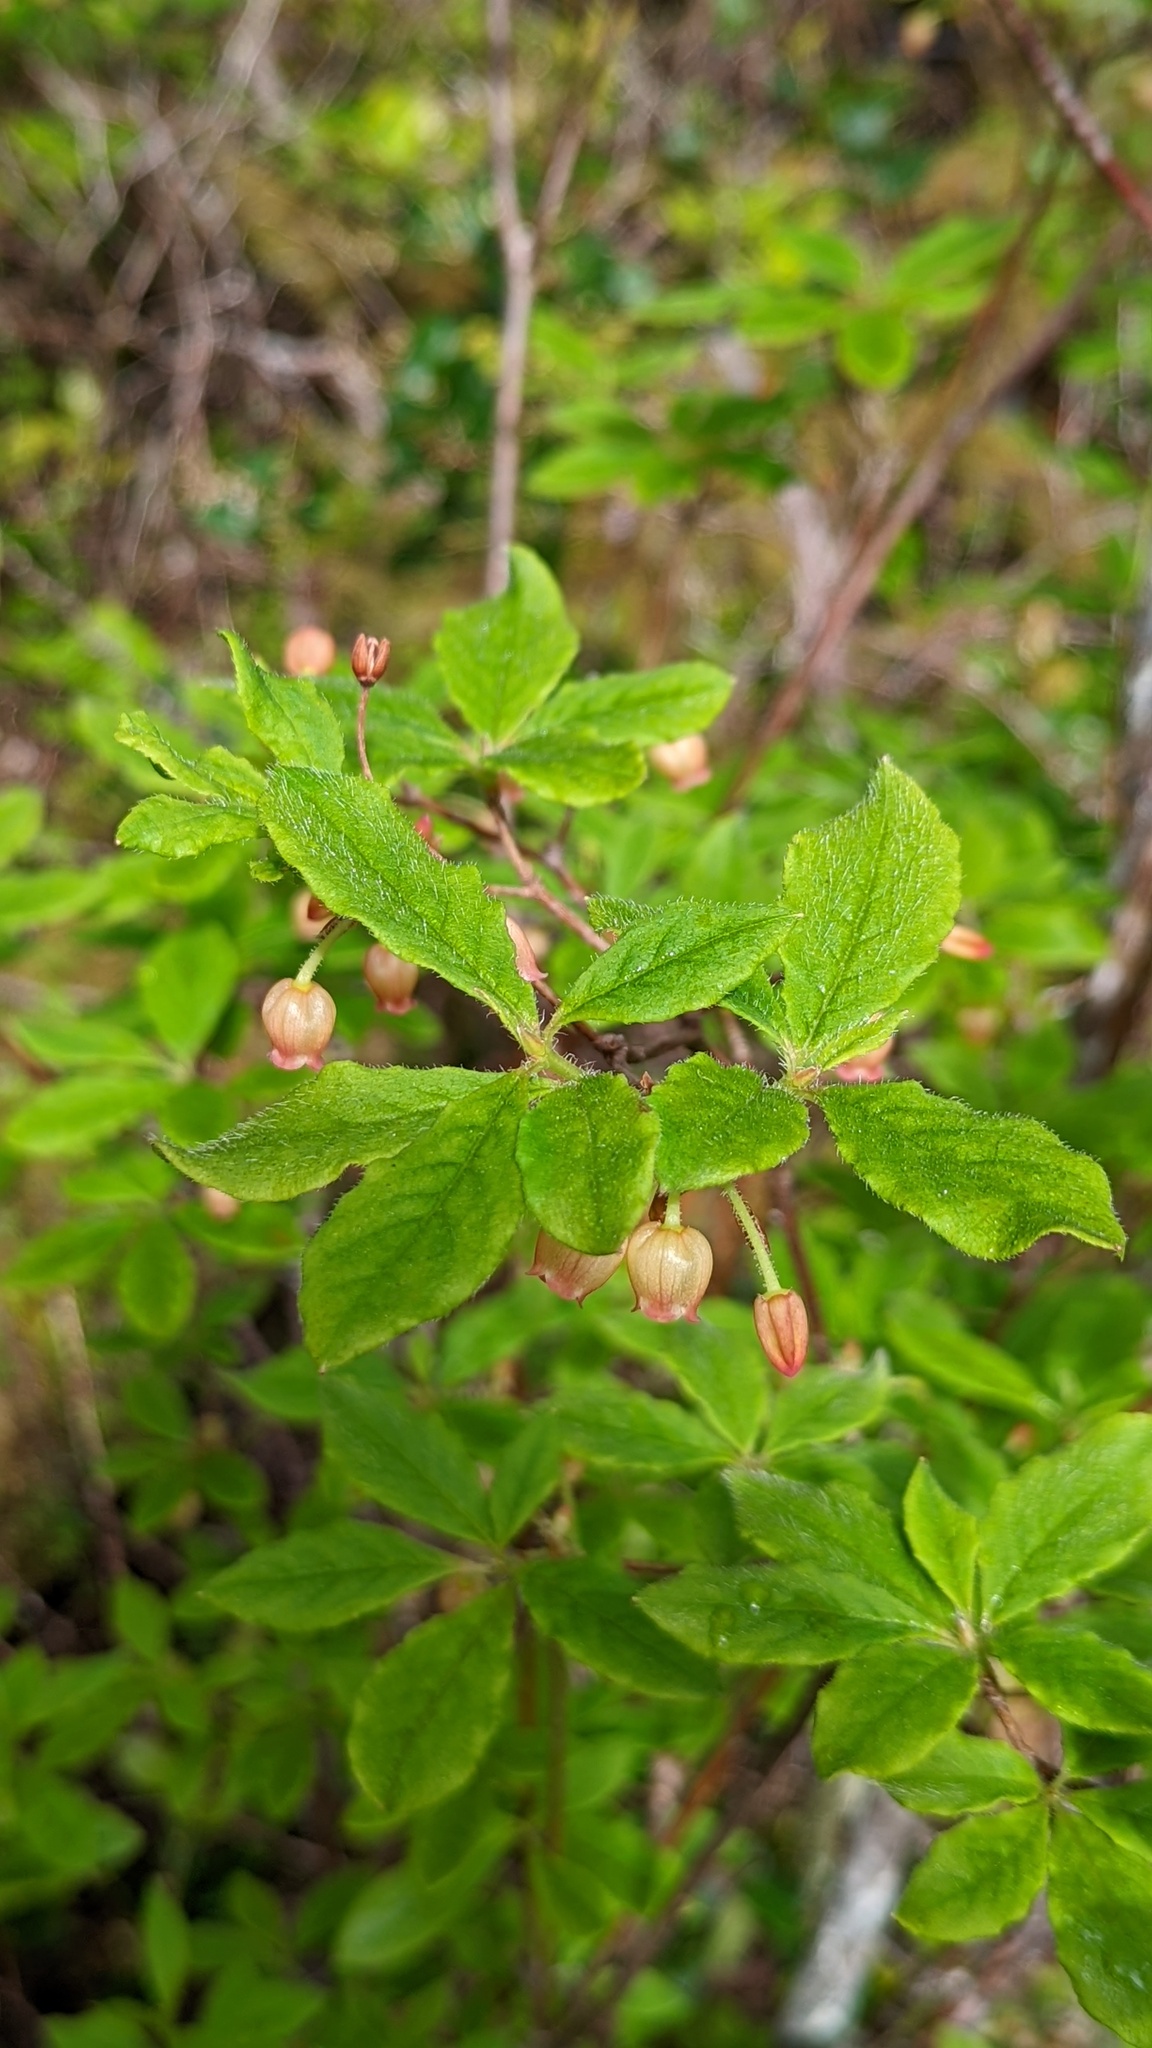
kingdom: Plantae
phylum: Tracheophyta
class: Magnoliopsida
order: Ericales
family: Ericaceae
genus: Rhododendron
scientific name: Rhododendron menziesii
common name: Pacific menziesia
